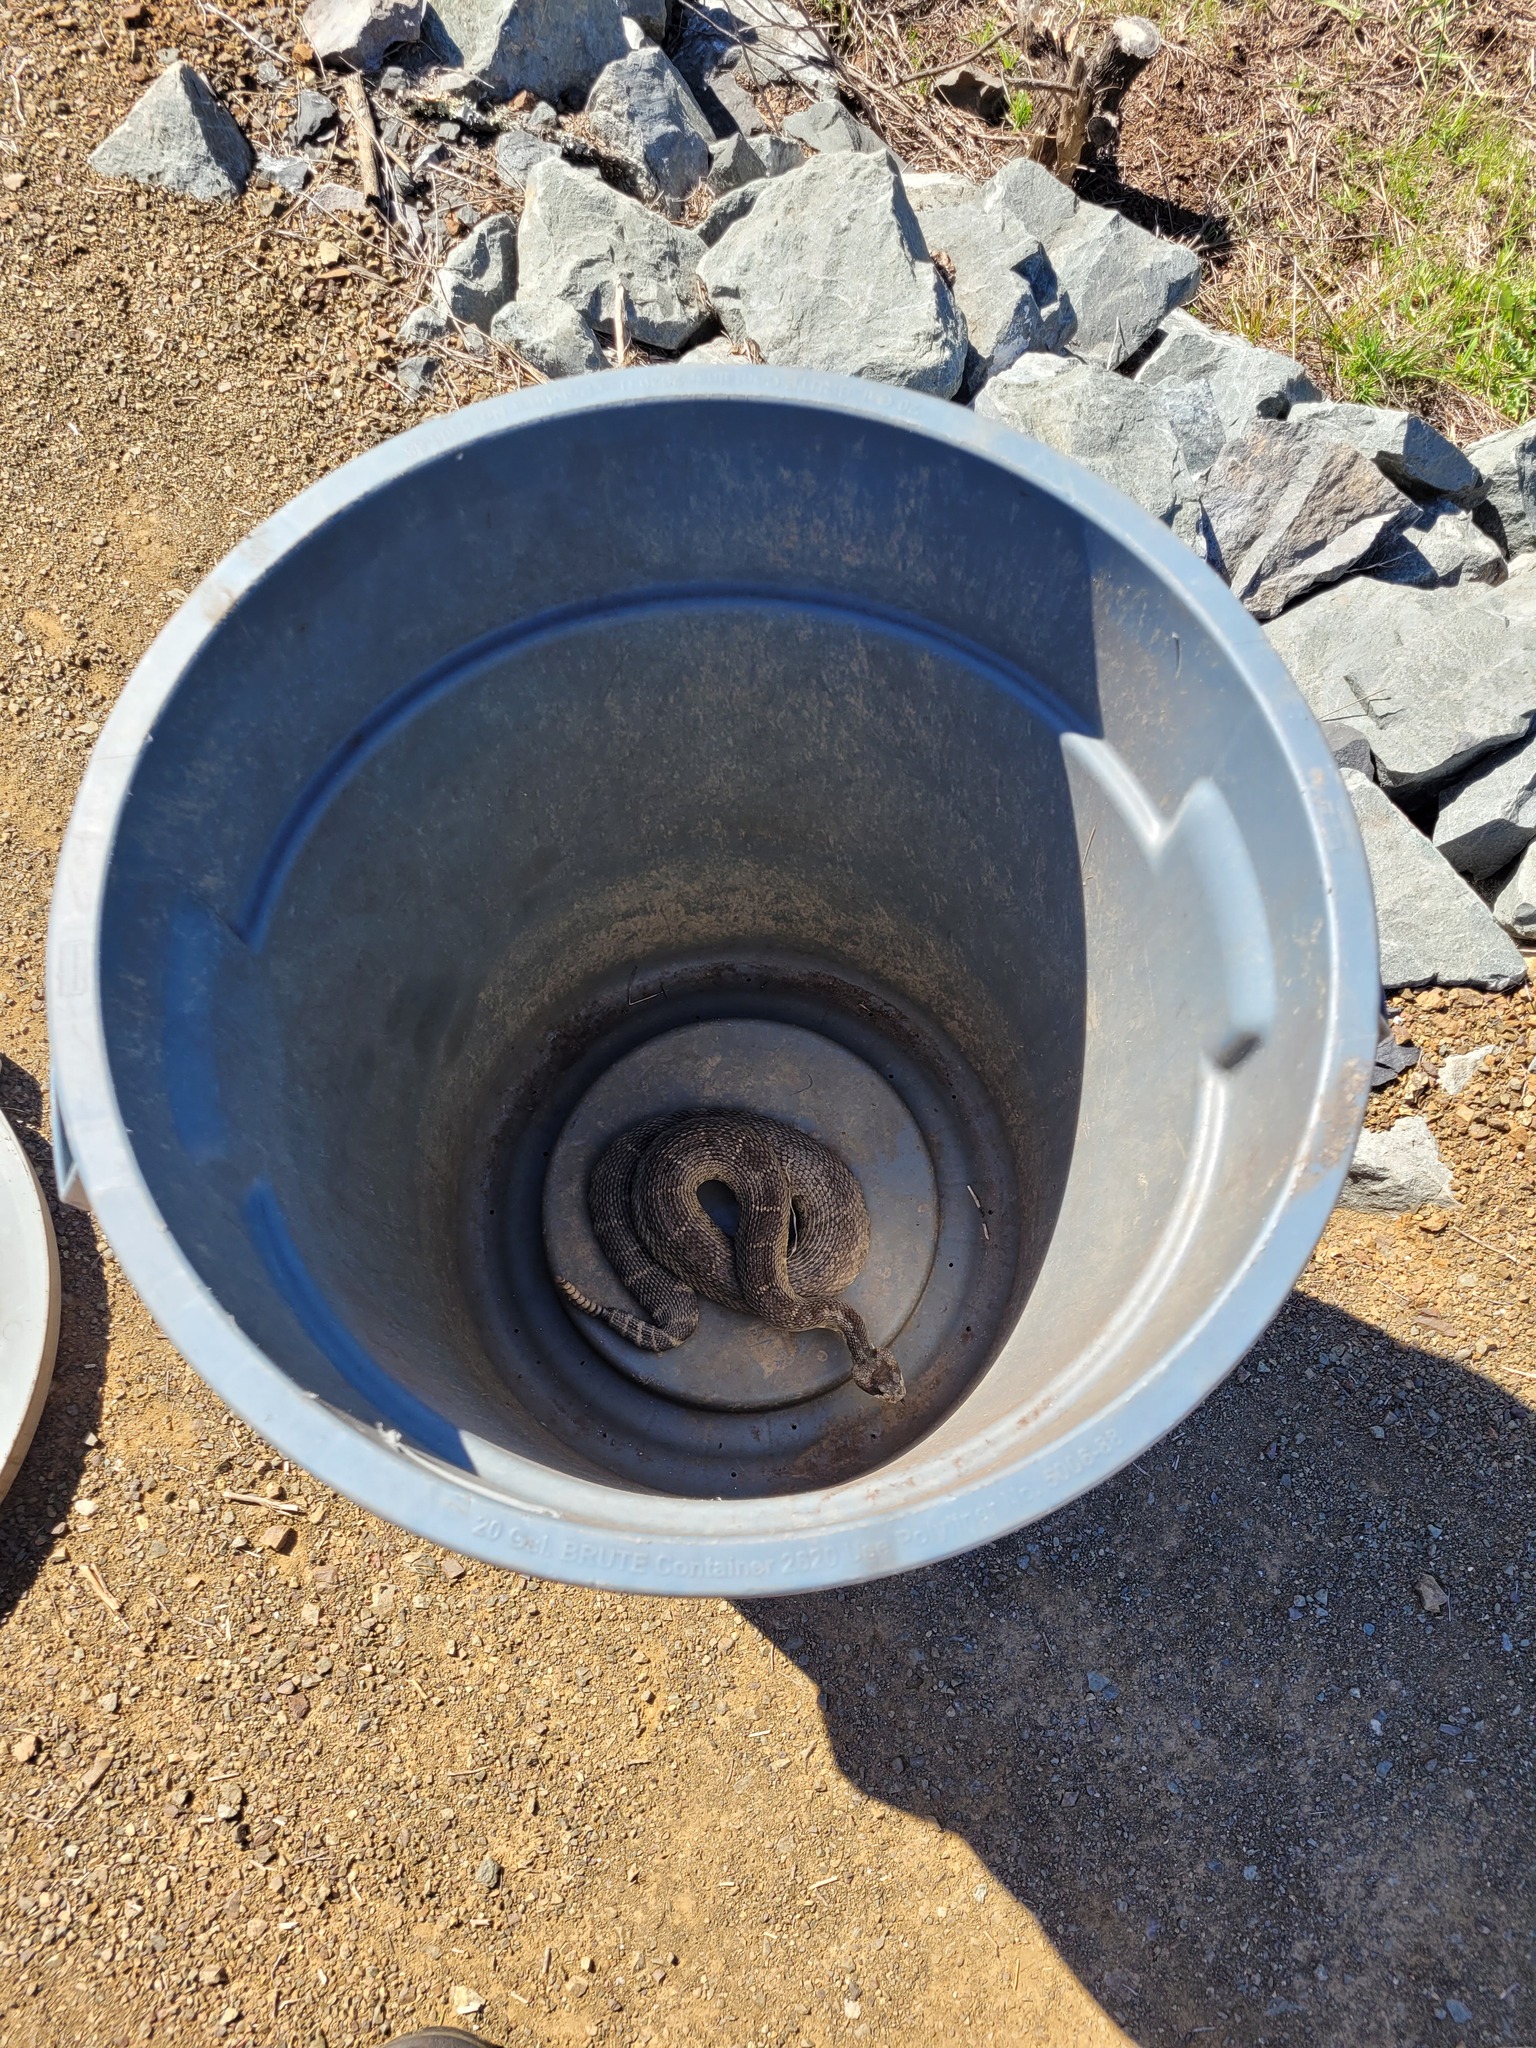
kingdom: Animalia
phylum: Chordata
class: Squamata
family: Viperidae
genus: Crotalus
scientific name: Crotalus oreganus
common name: Abyssus
